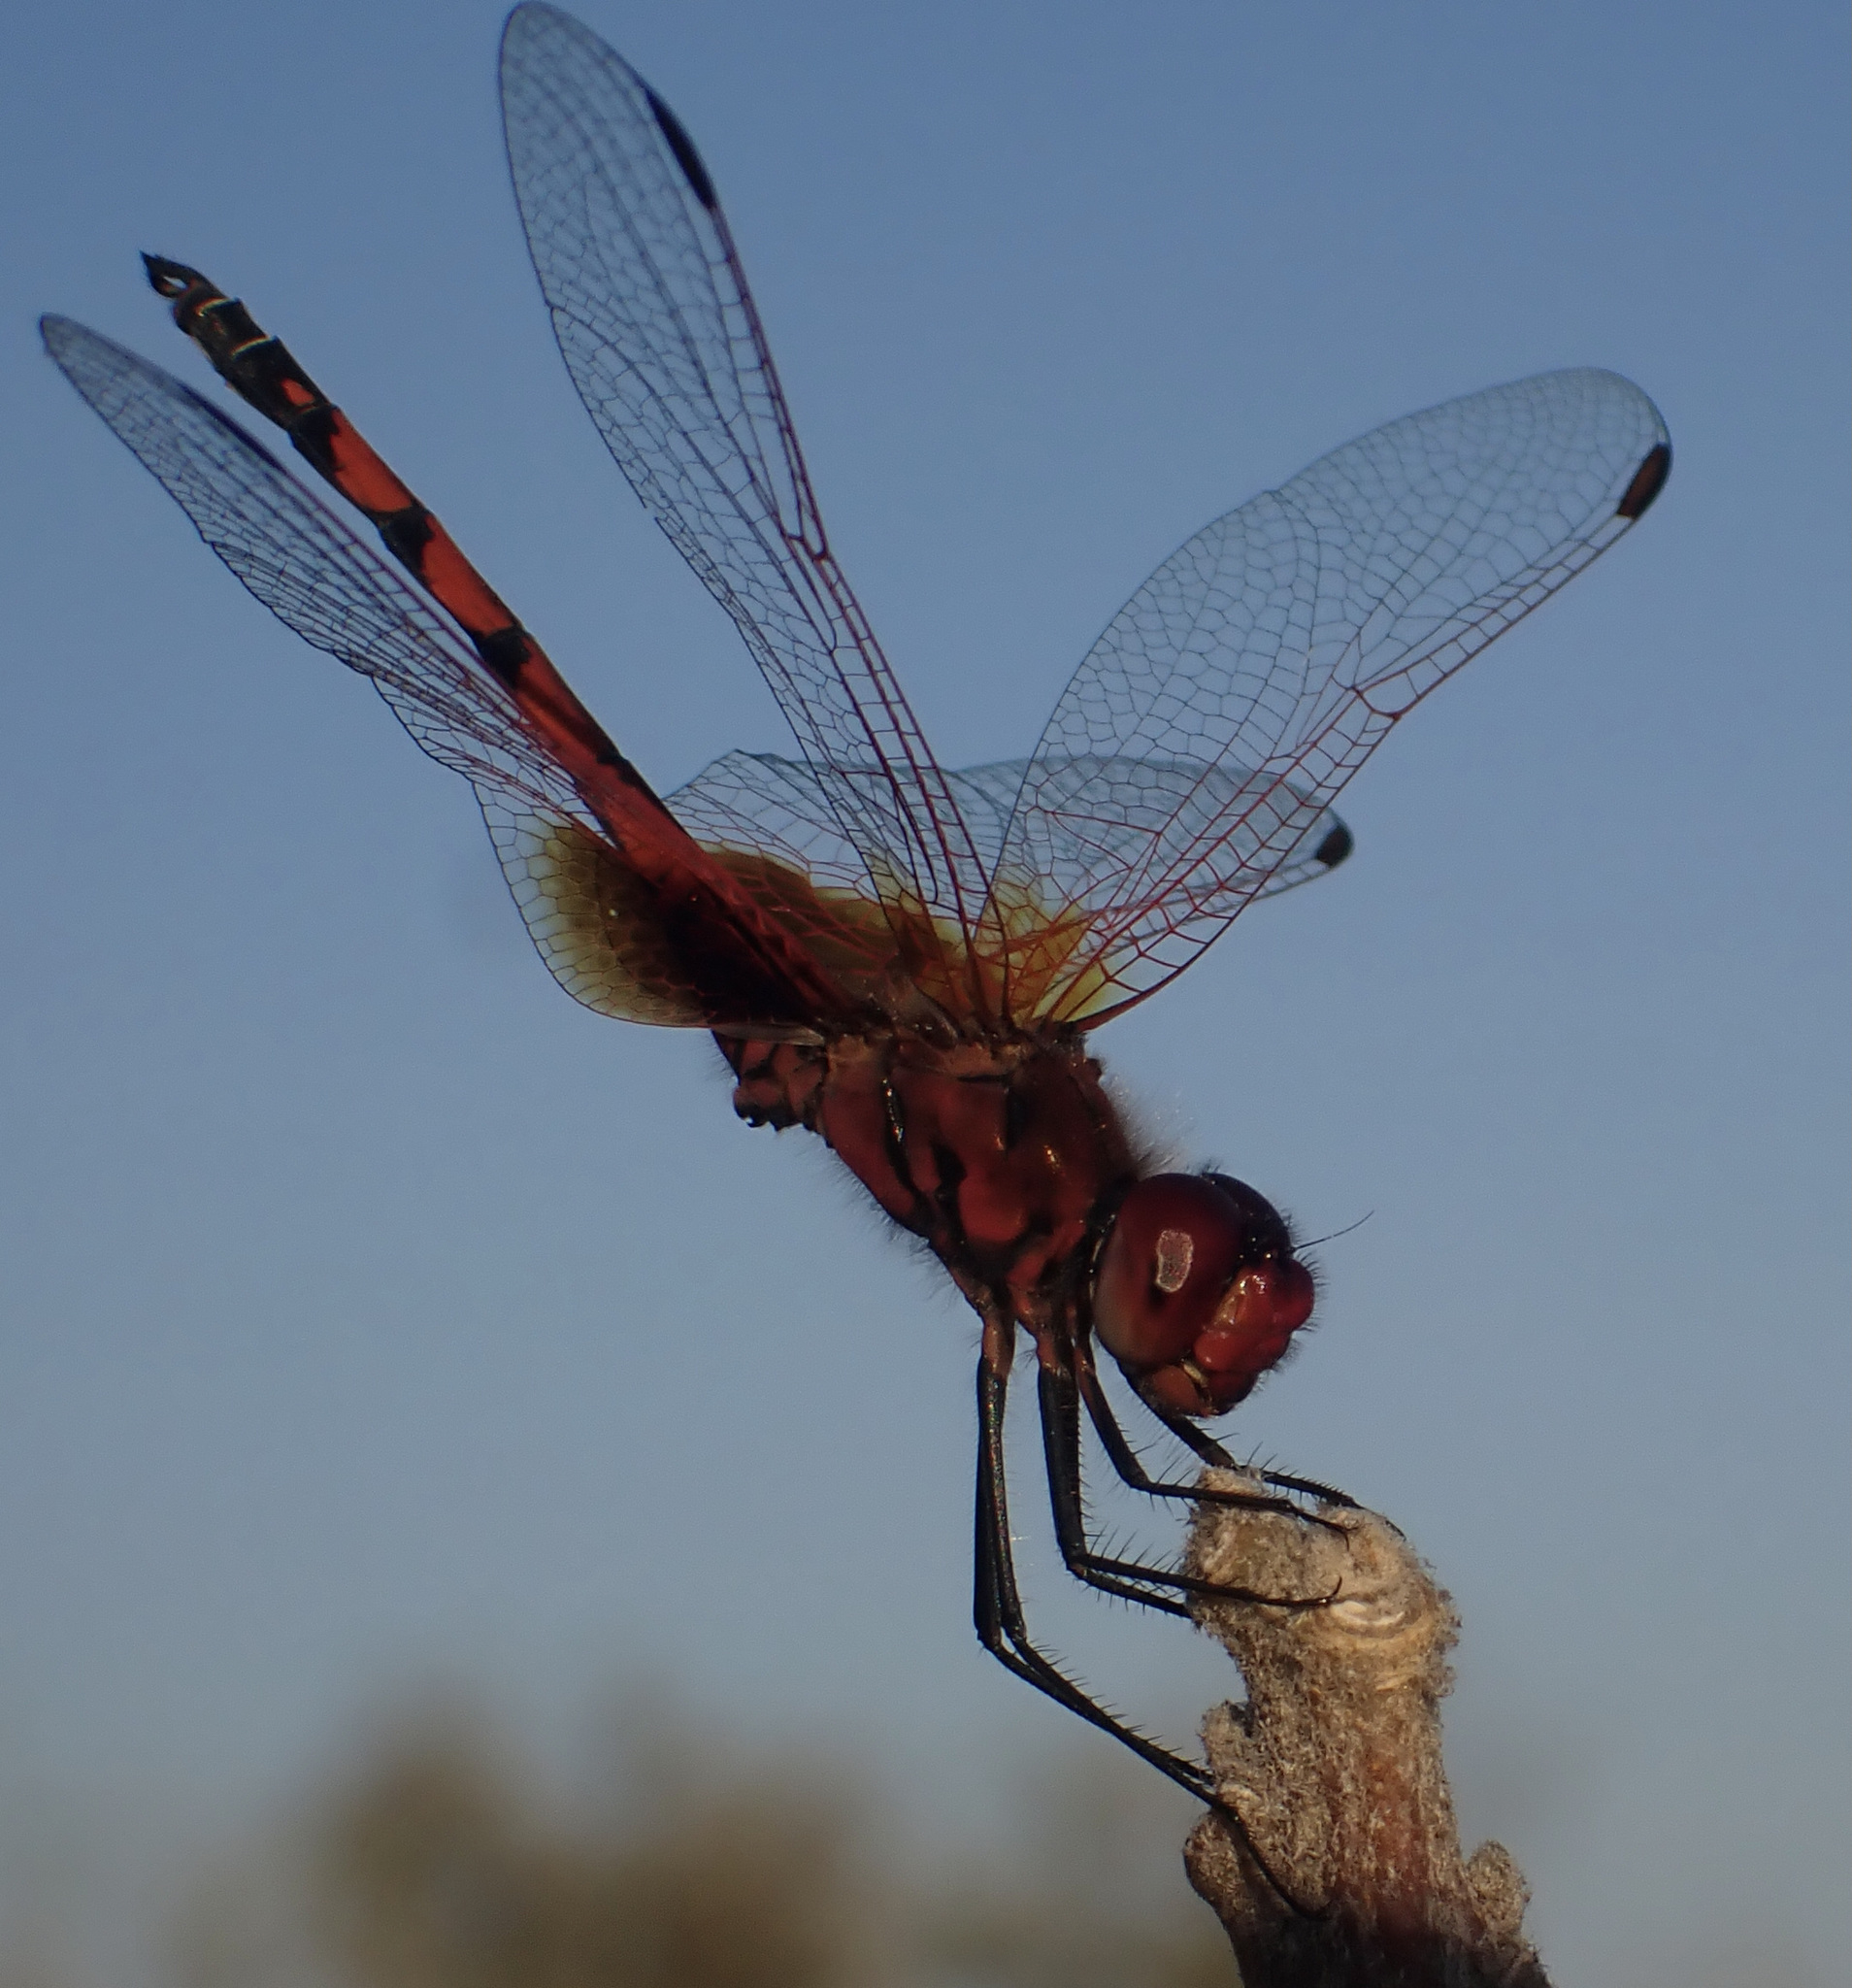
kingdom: Animalia
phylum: Arthropoda
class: Insecta
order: Odonata
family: Libellulidae
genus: Trithemis
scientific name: Trithemis monardi
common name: Monard's dropwing
